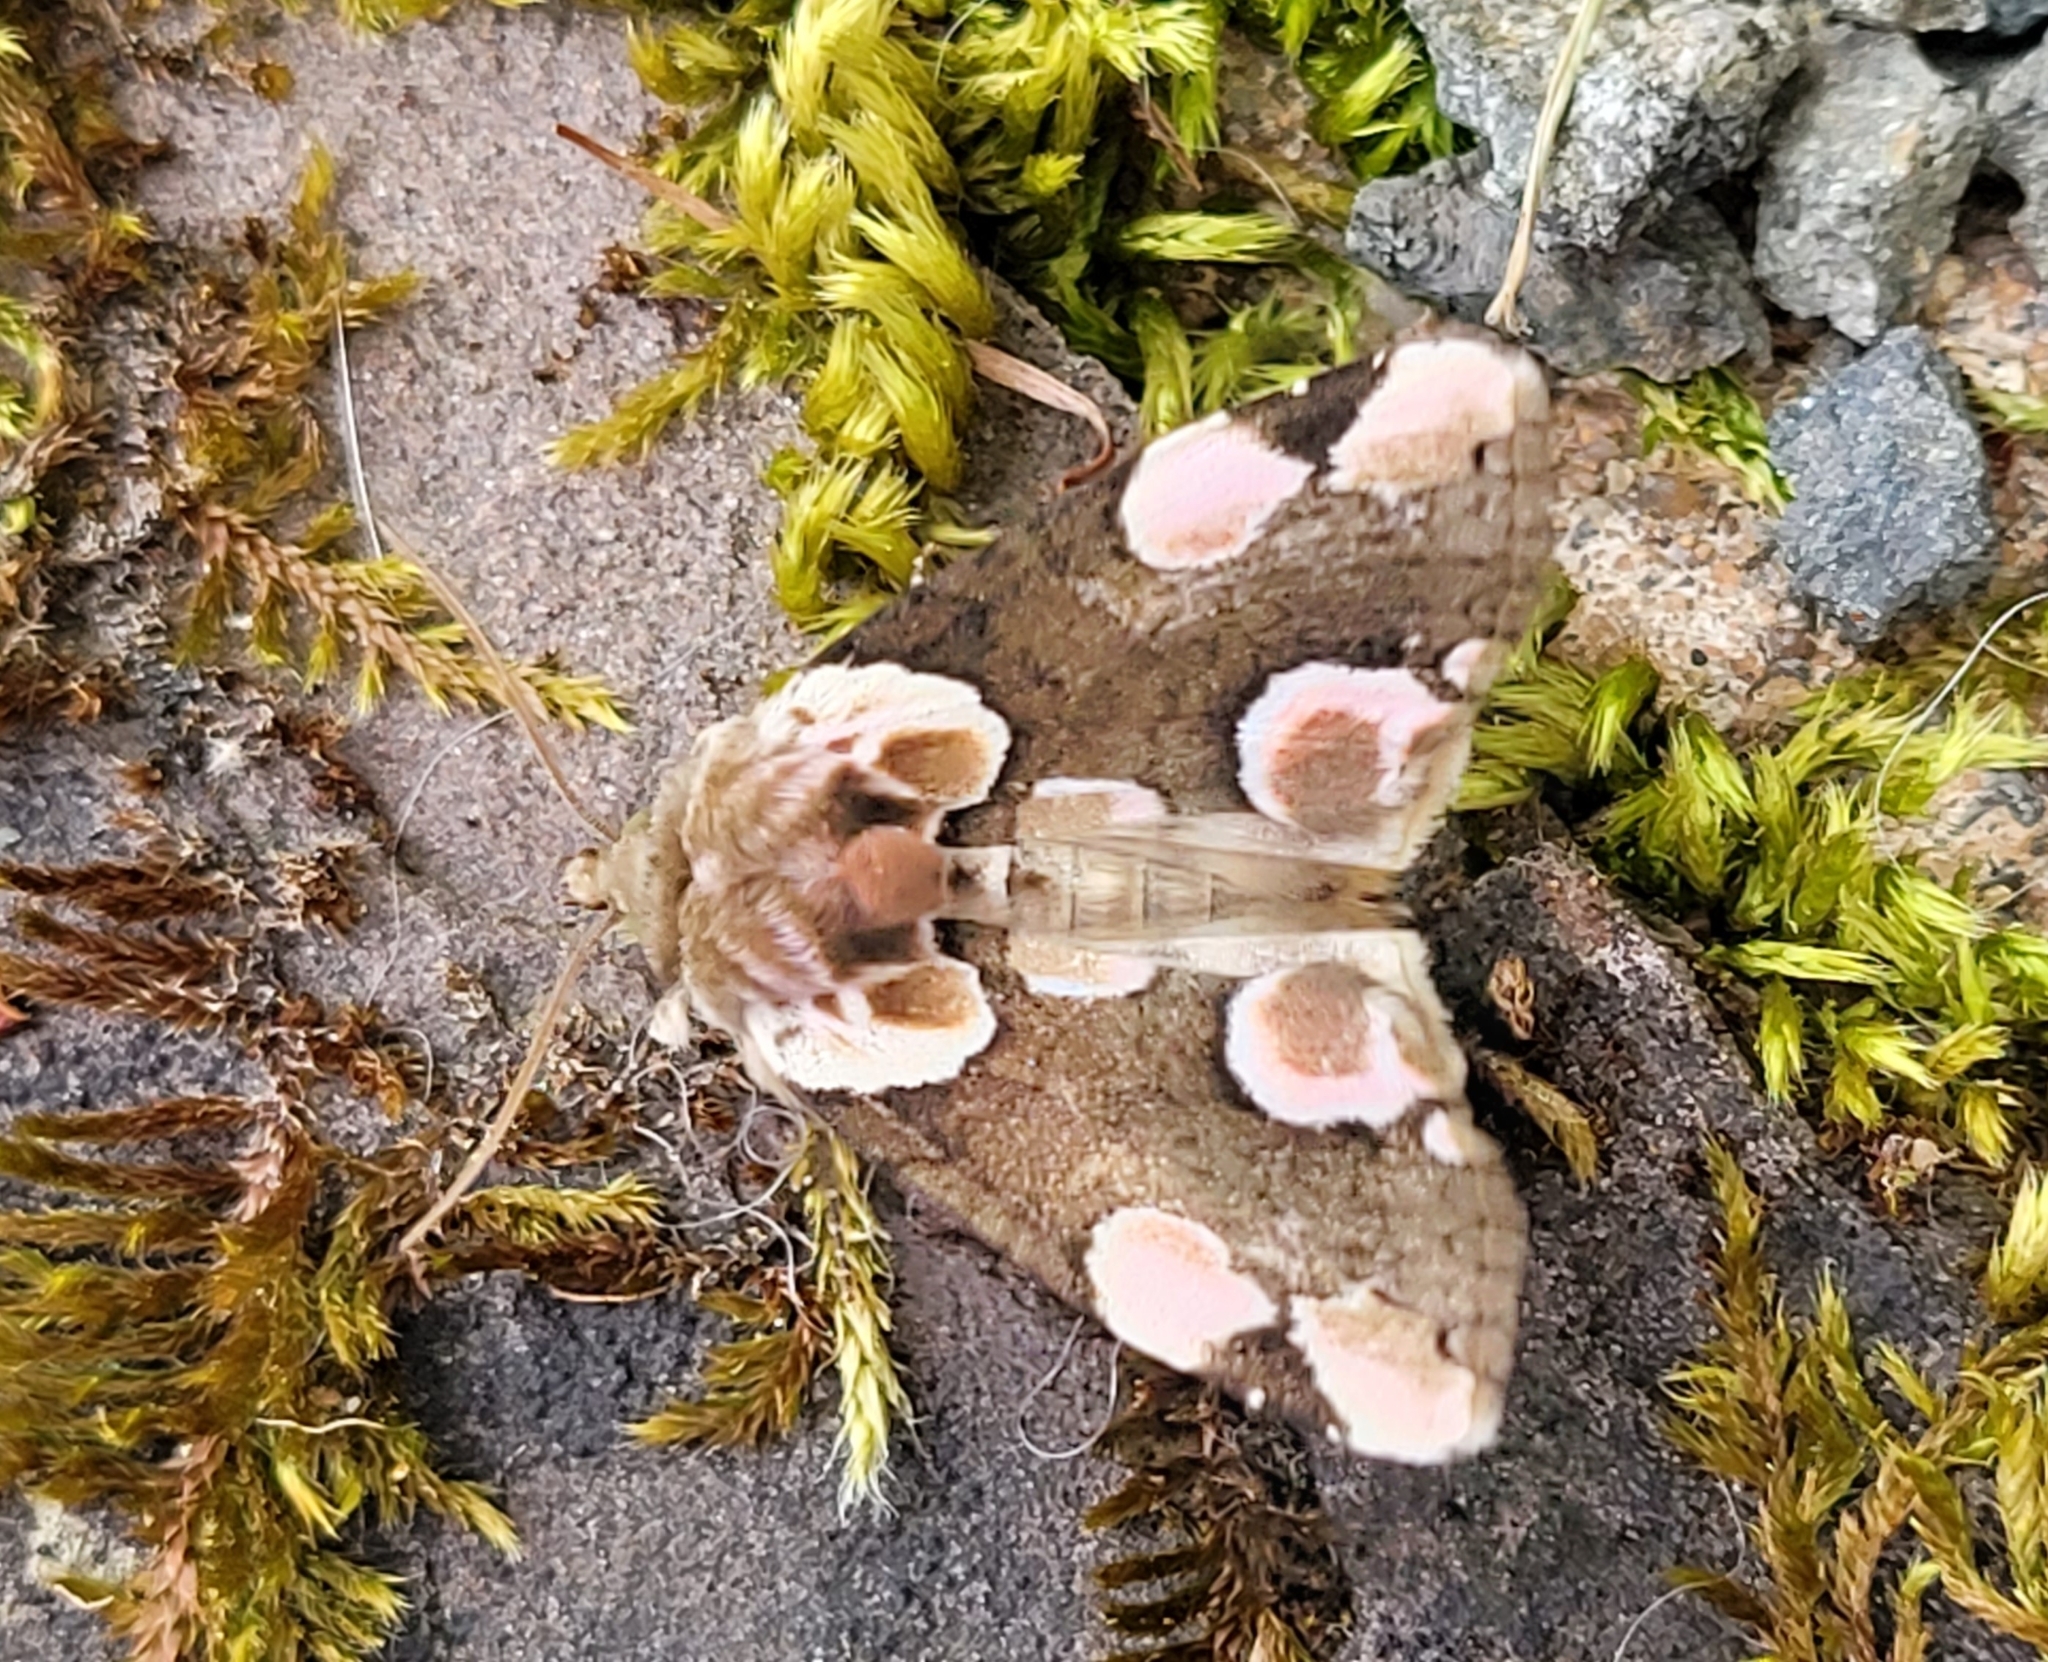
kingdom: Animalia
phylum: Arthropoda
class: Insecta
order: Lepidoptera
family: Drepanidae
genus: Thyatira
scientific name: Thyatira batis
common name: Peach blossom
